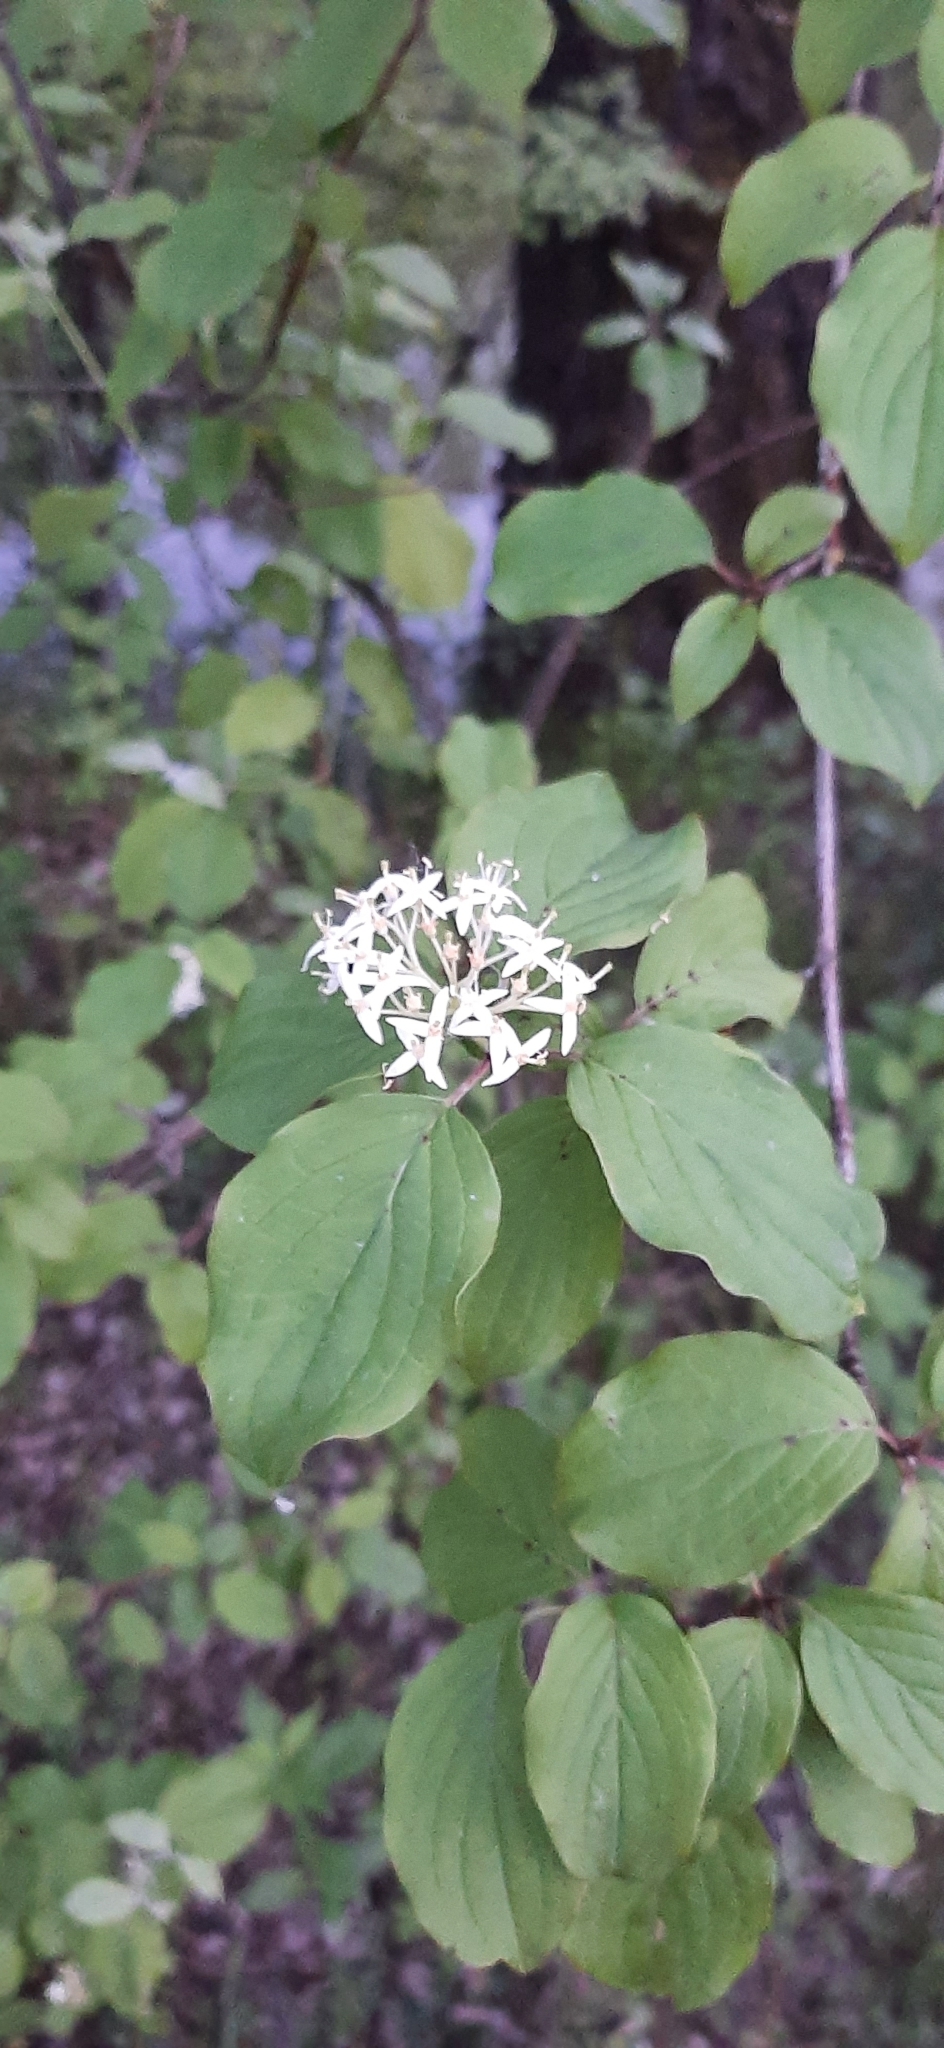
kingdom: Plantae
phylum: Tracheophyta
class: Magnoliopsida
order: Cornales
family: Cornaceae
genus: Cornus
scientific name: Cornus sanguinea
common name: Dogwood
